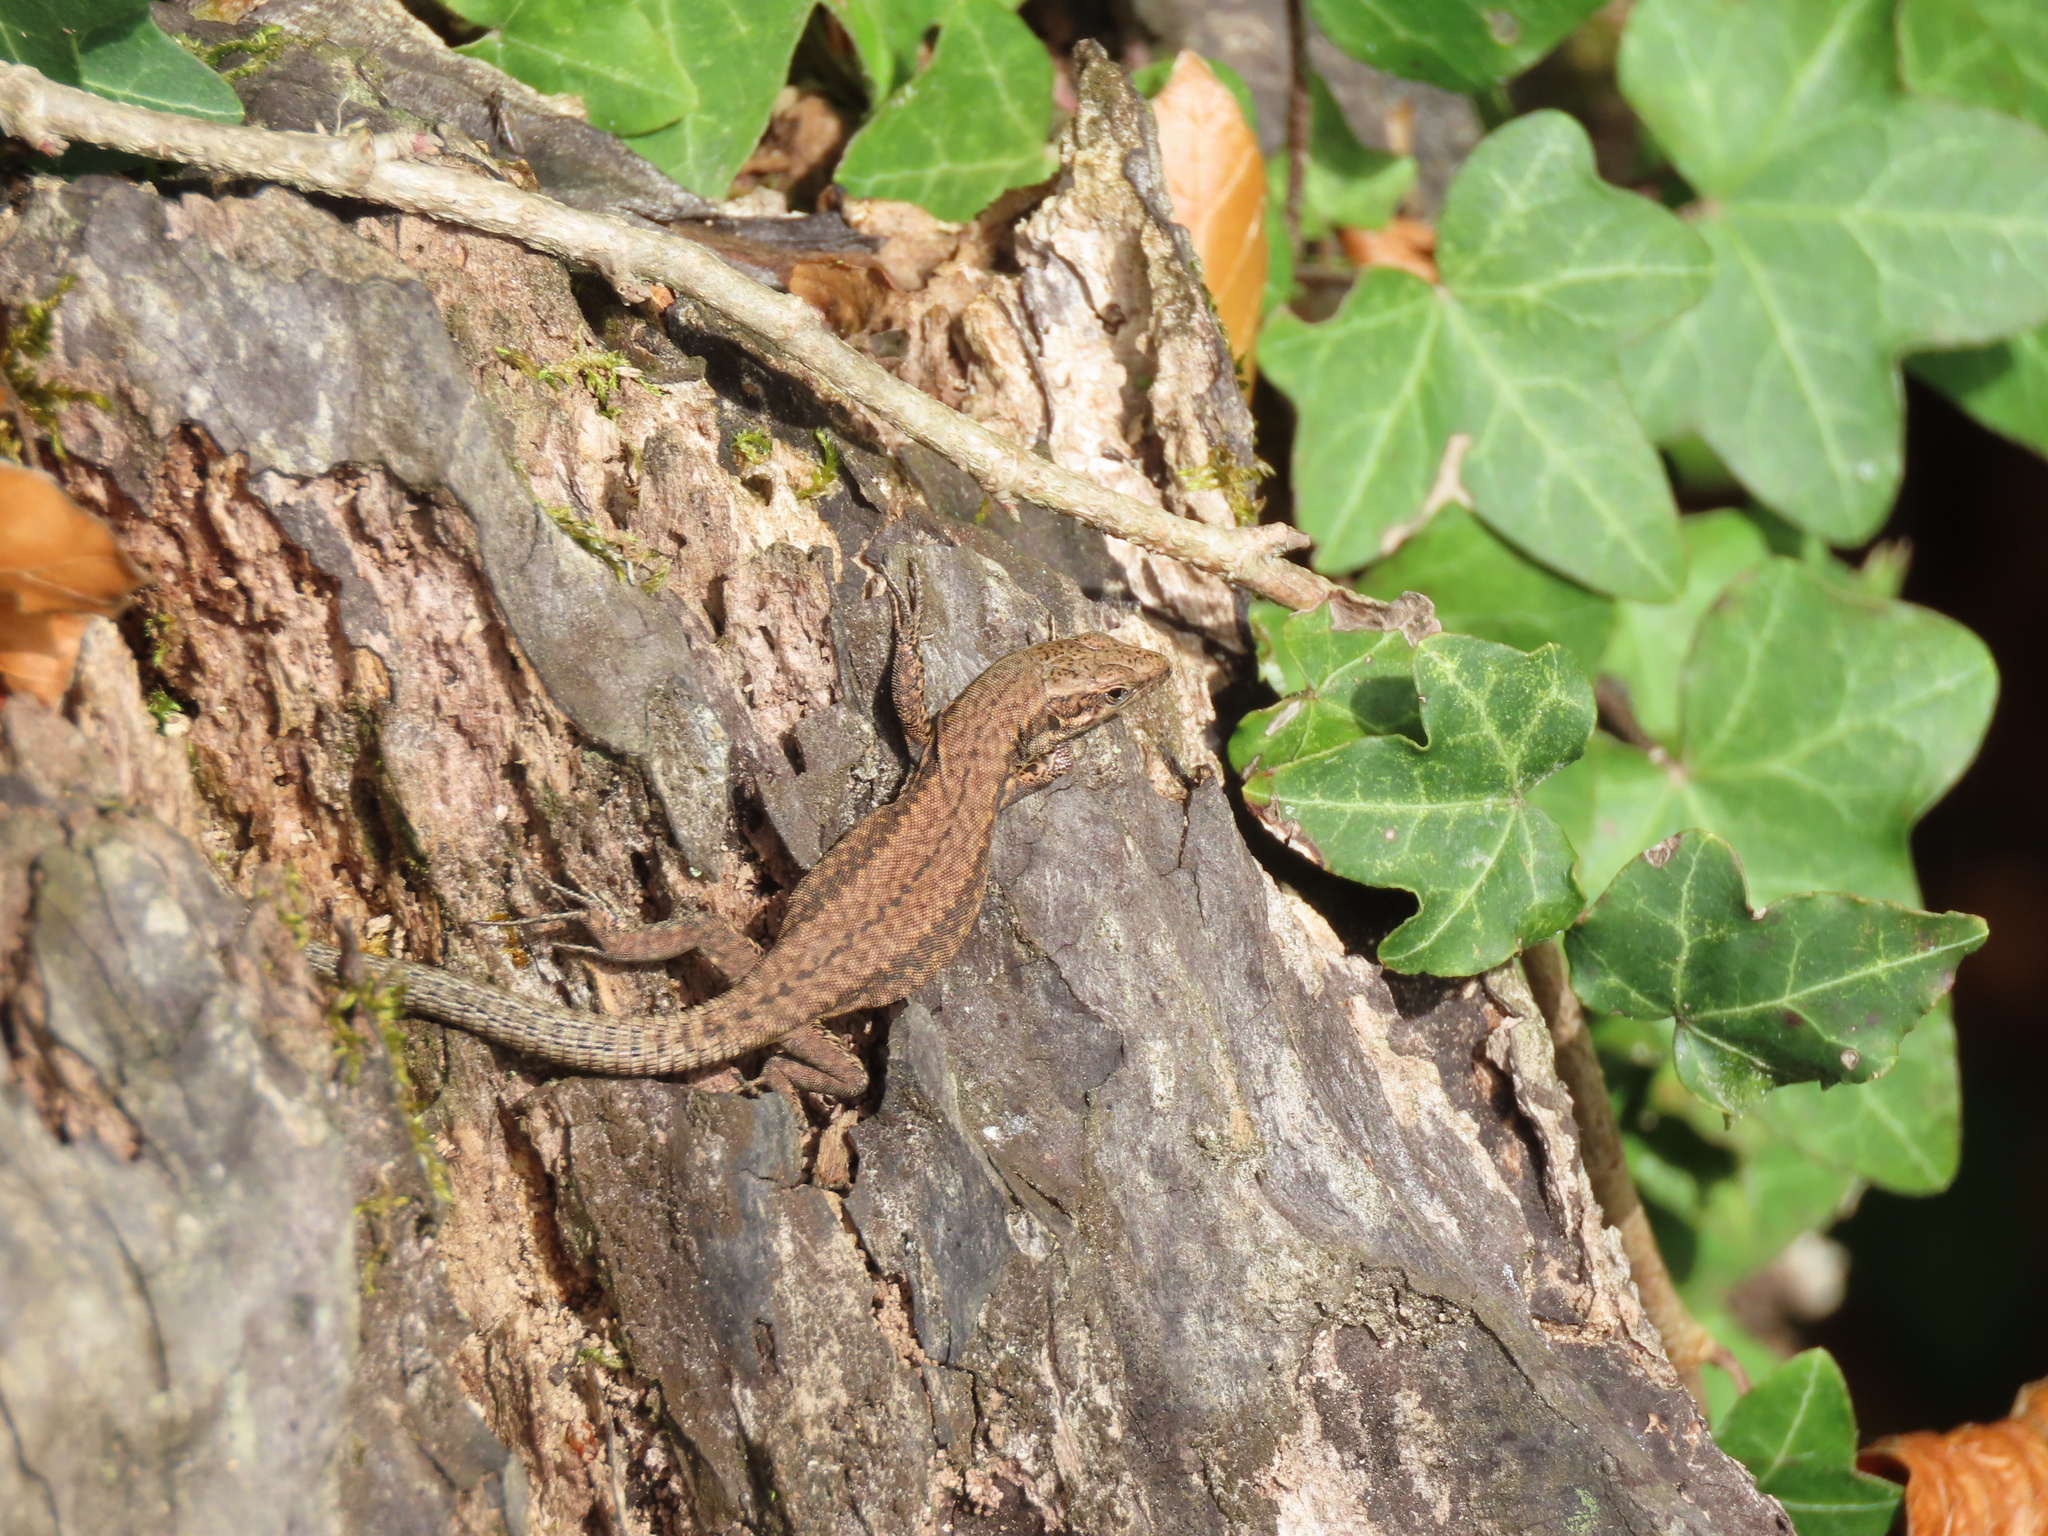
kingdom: Animalia
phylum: Chordata
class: Squamata
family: Lacertidae
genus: Podarcis
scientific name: Podarcis muralis
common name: Common wall lizard
